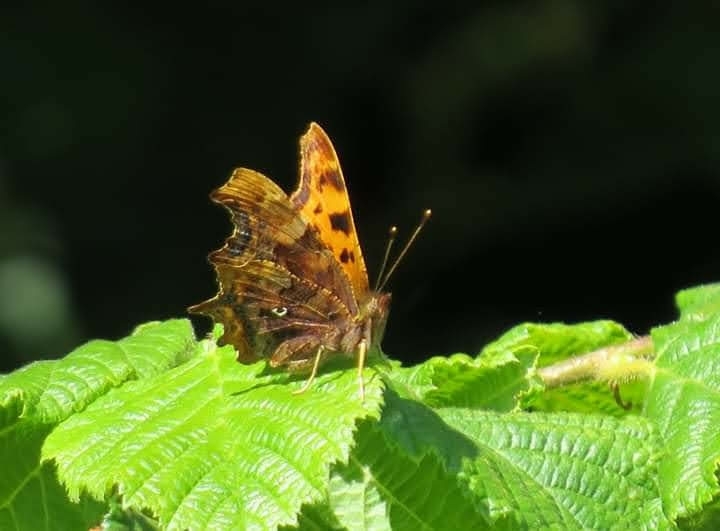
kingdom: Animalia
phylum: Arthropoda
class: Insecta
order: Lepidoptera
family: Nymphalidae
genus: Polygonia
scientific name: Polygonia c-album
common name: Comma
